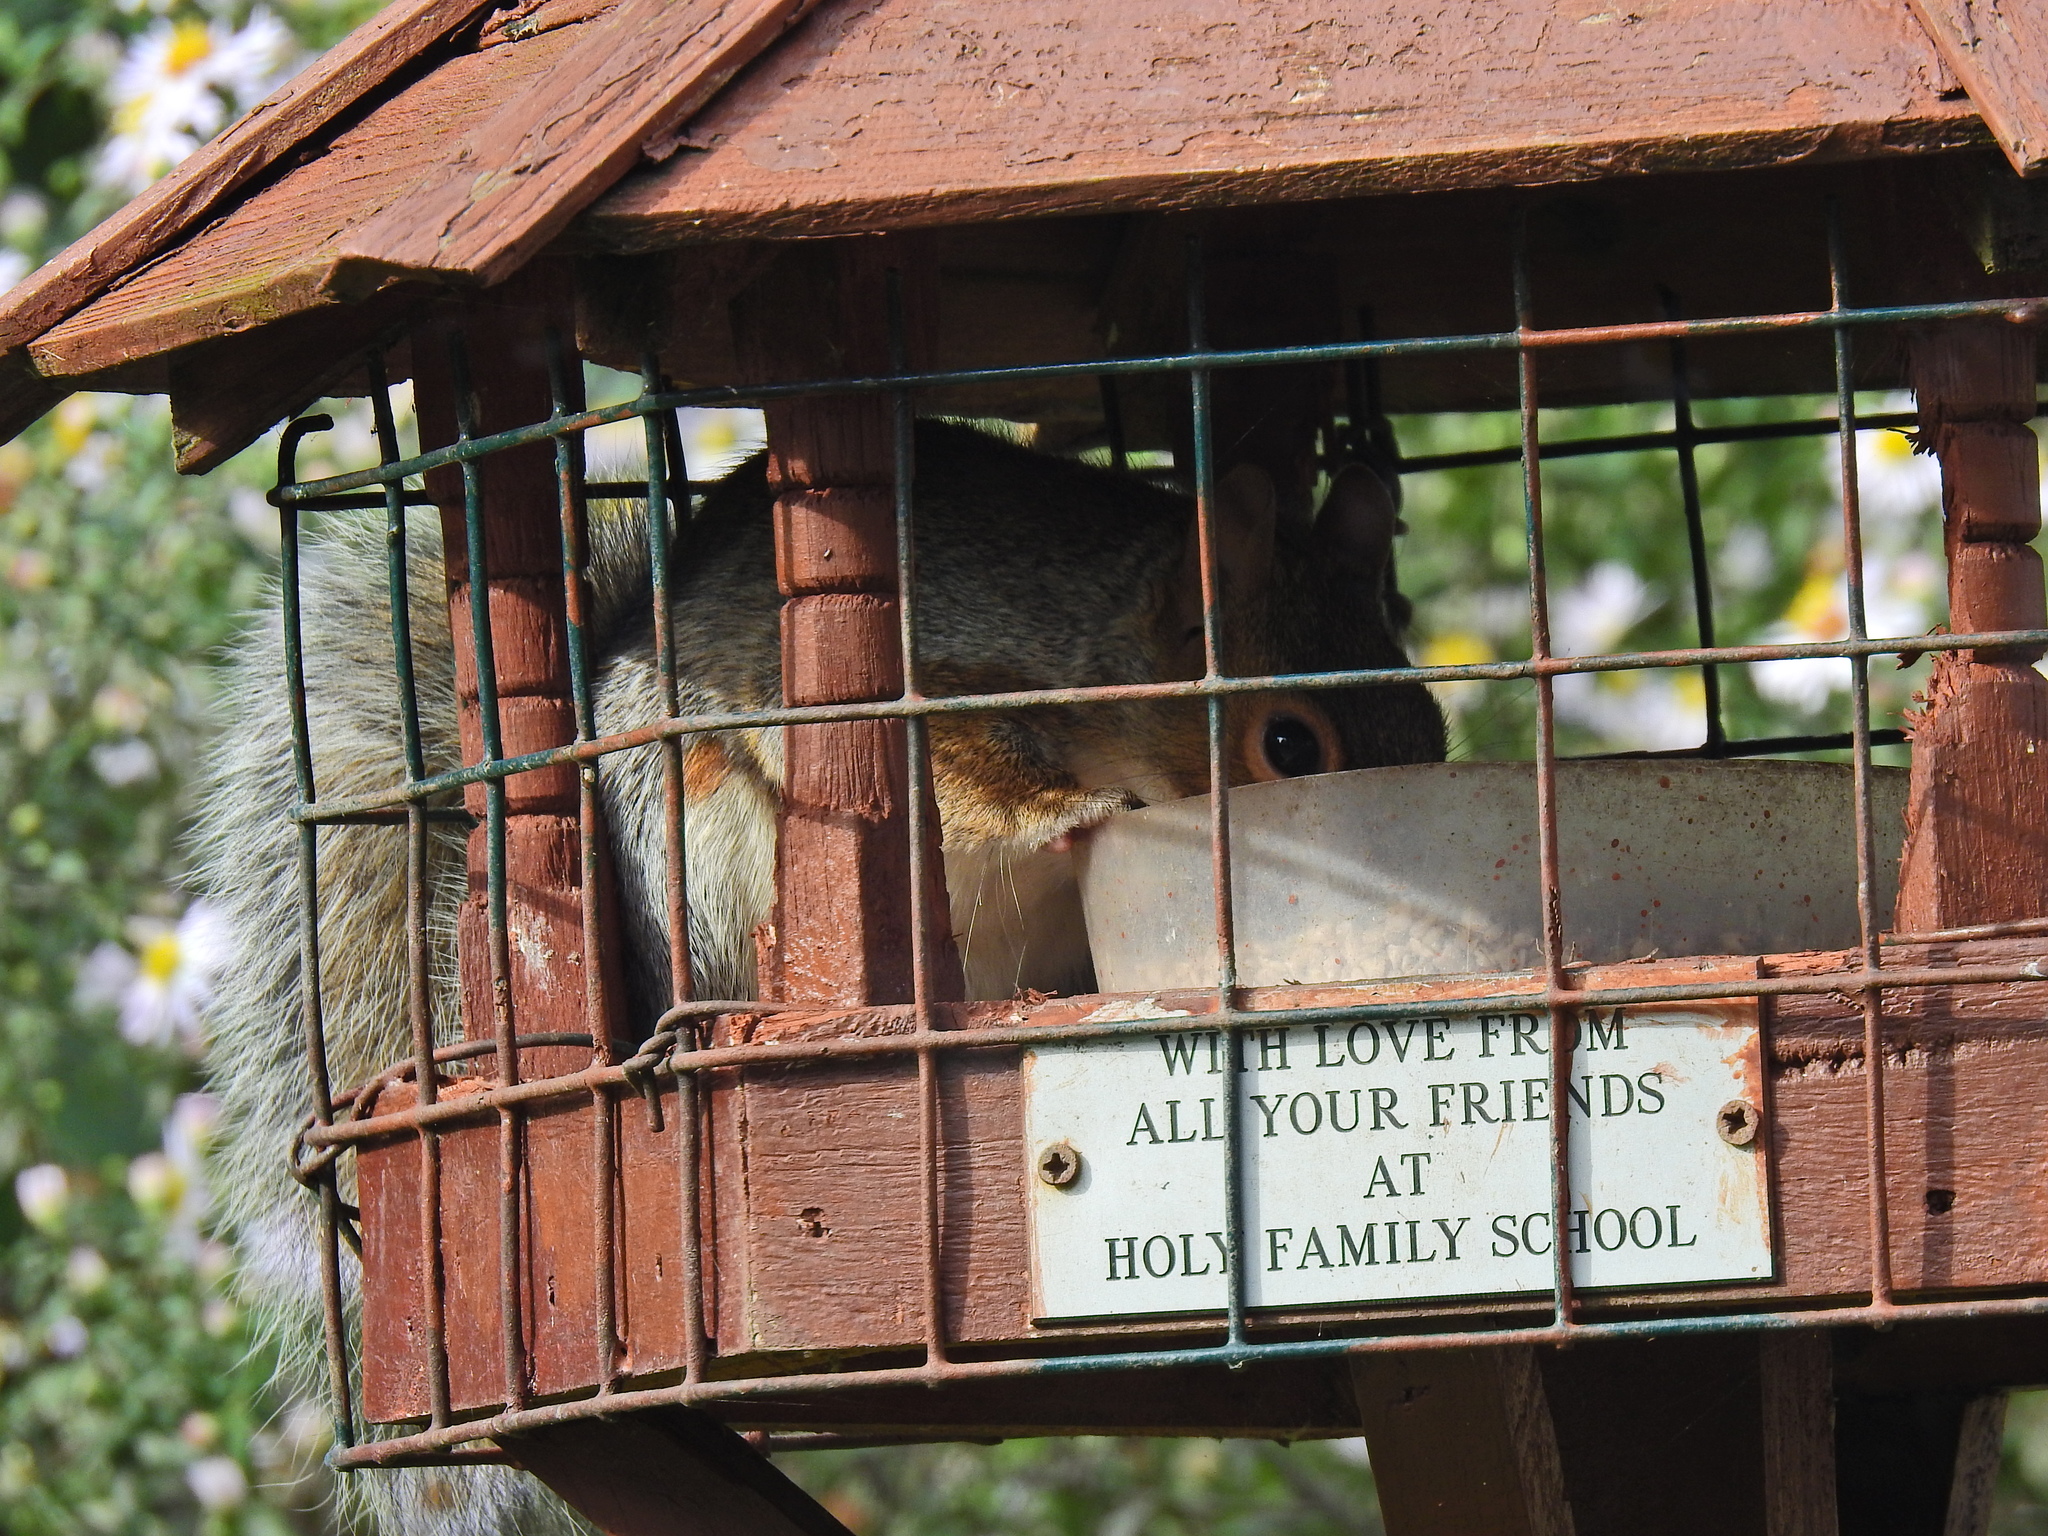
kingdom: Animalia
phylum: Chordata
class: Mammalia
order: Rodentia
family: Sciuridae
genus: Sciurus
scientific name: Sciurus carolinensis
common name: Eastern gray squirrel
